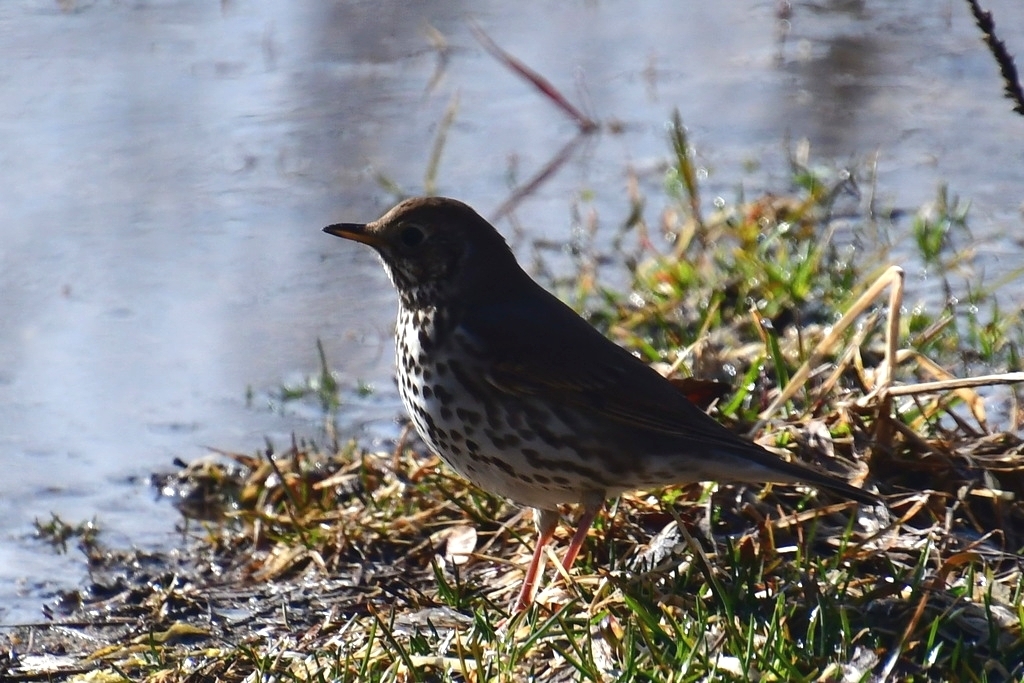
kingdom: Animalia
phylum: Chordata
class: Aves
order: Passeriformes
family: Turdidae
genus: Turdus
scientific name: Turdus philomelos
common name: Song thrush
